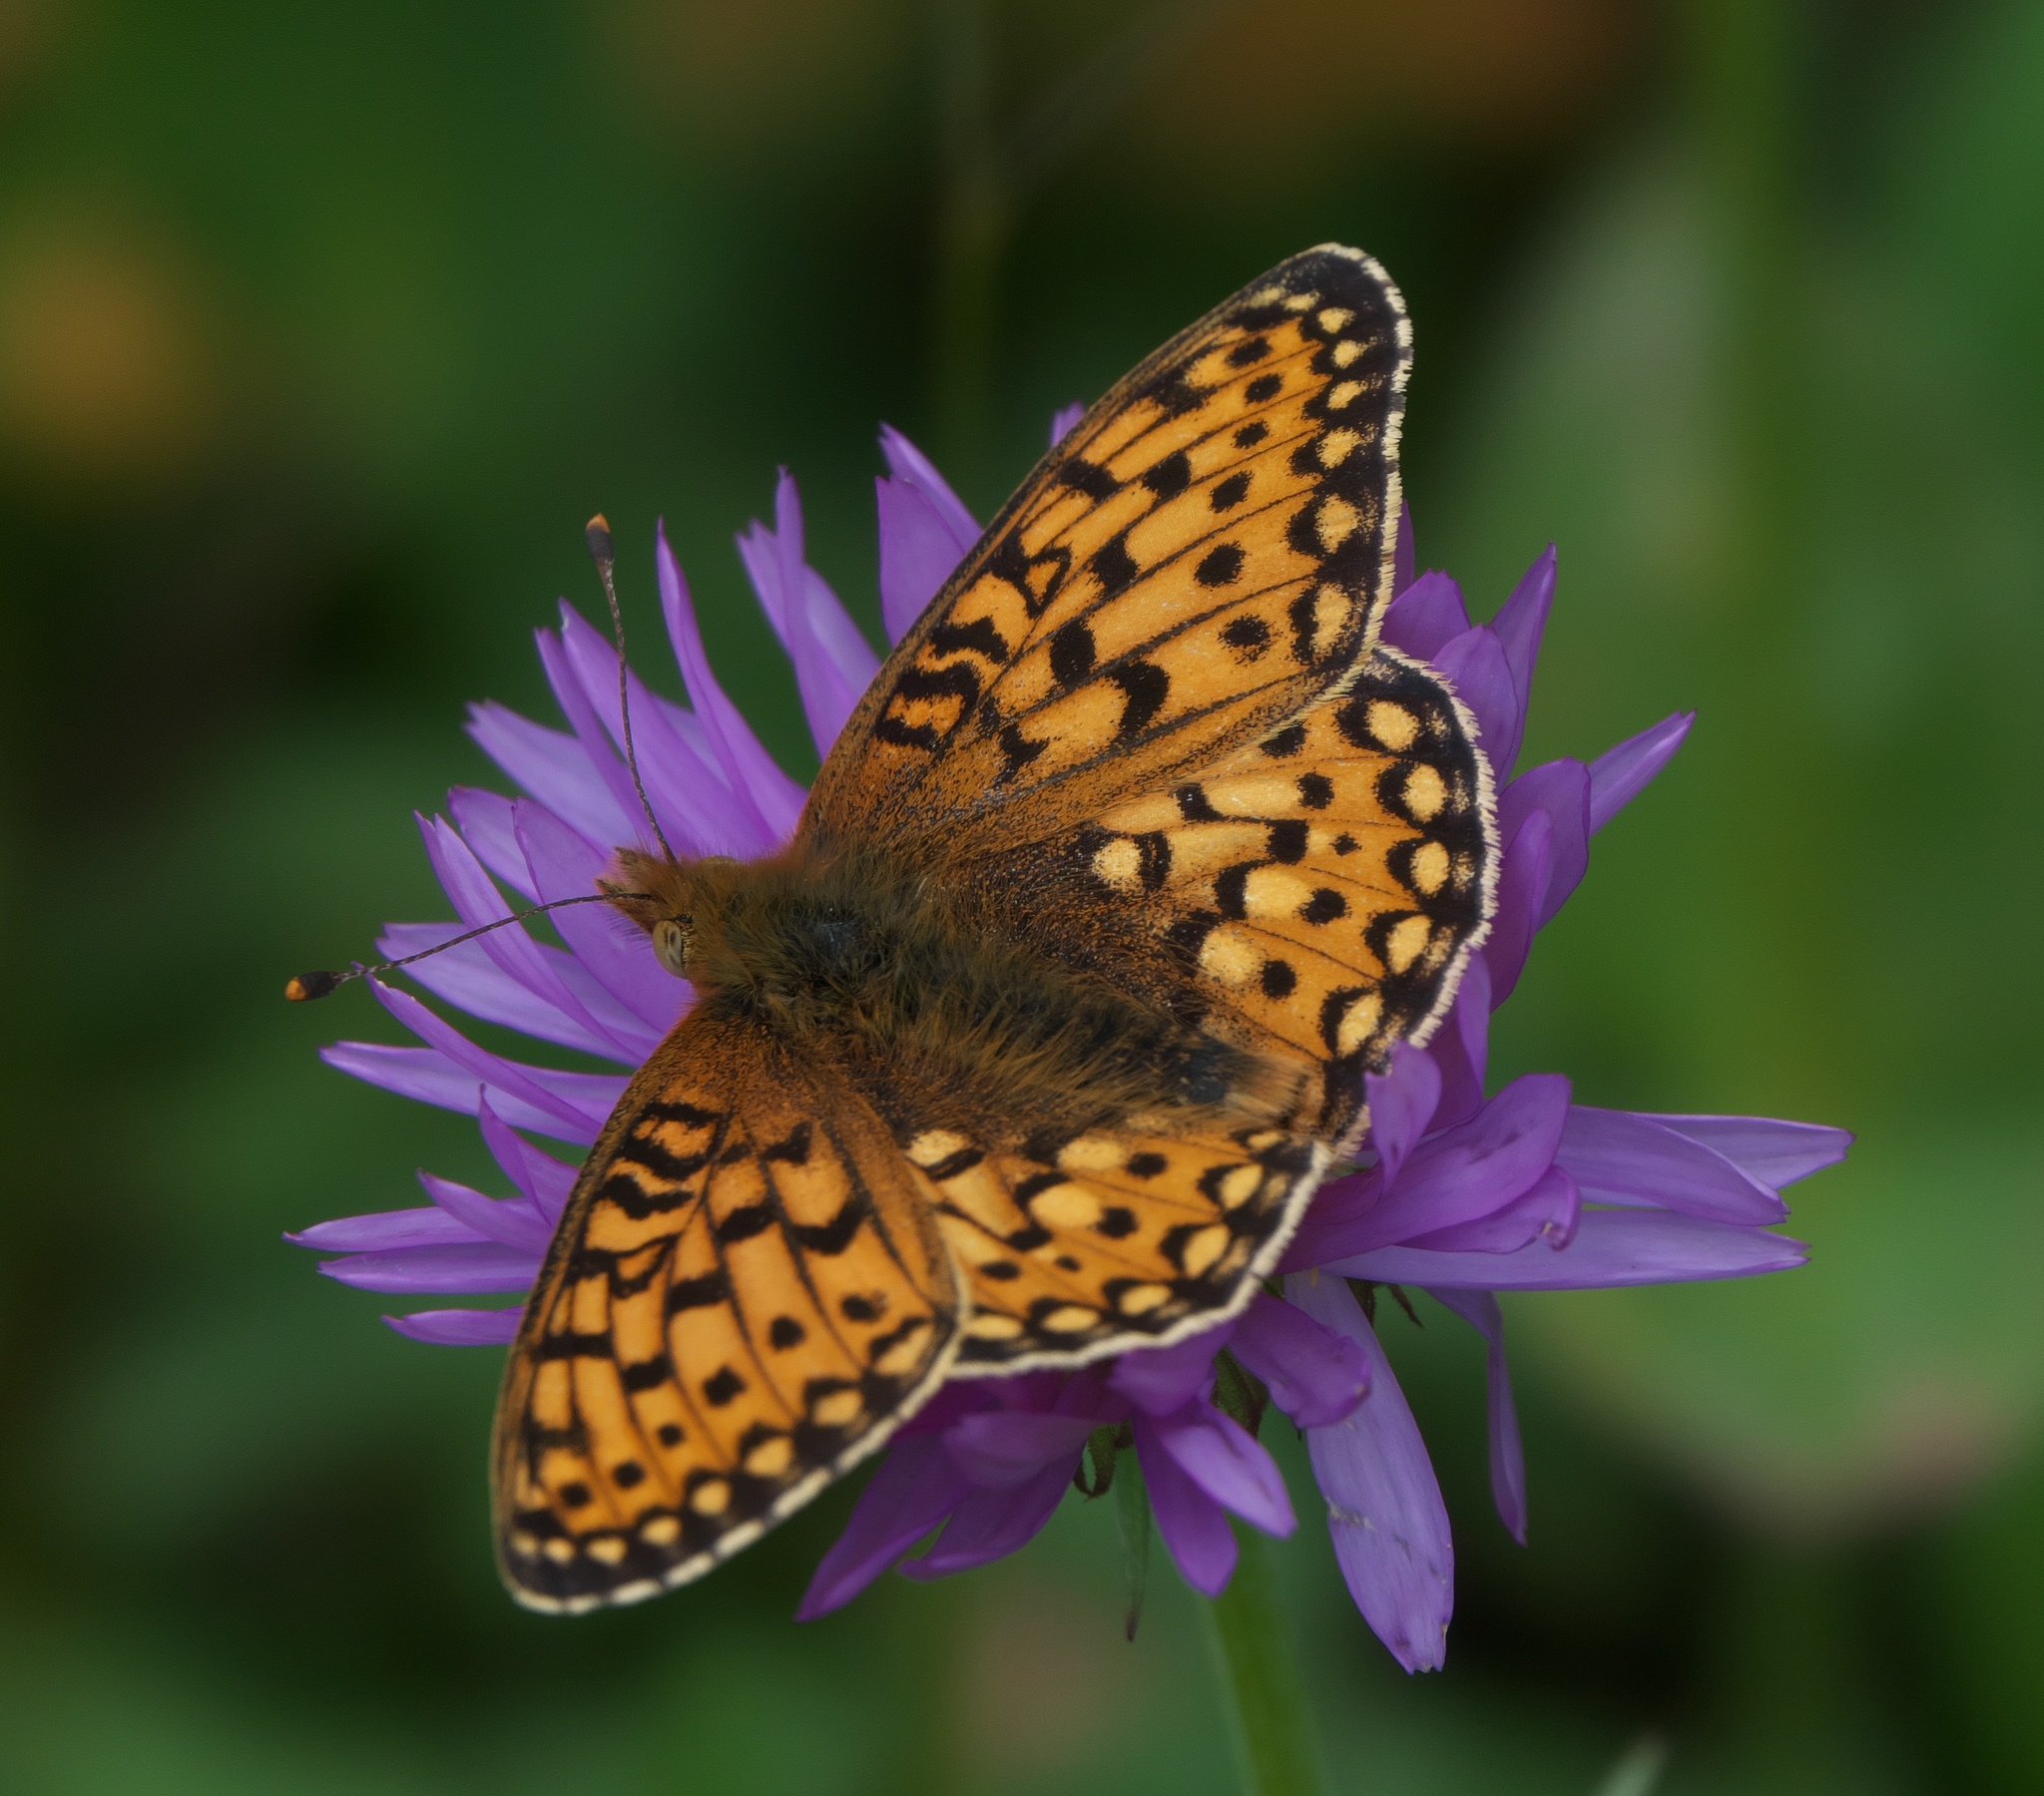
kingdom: Animalia
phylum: Arthropoda
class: Insecta
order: Lepidoptera
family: Nymphalidae
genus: Speyeria
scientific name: Speyeria mormonia
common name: Mormon fritillary
